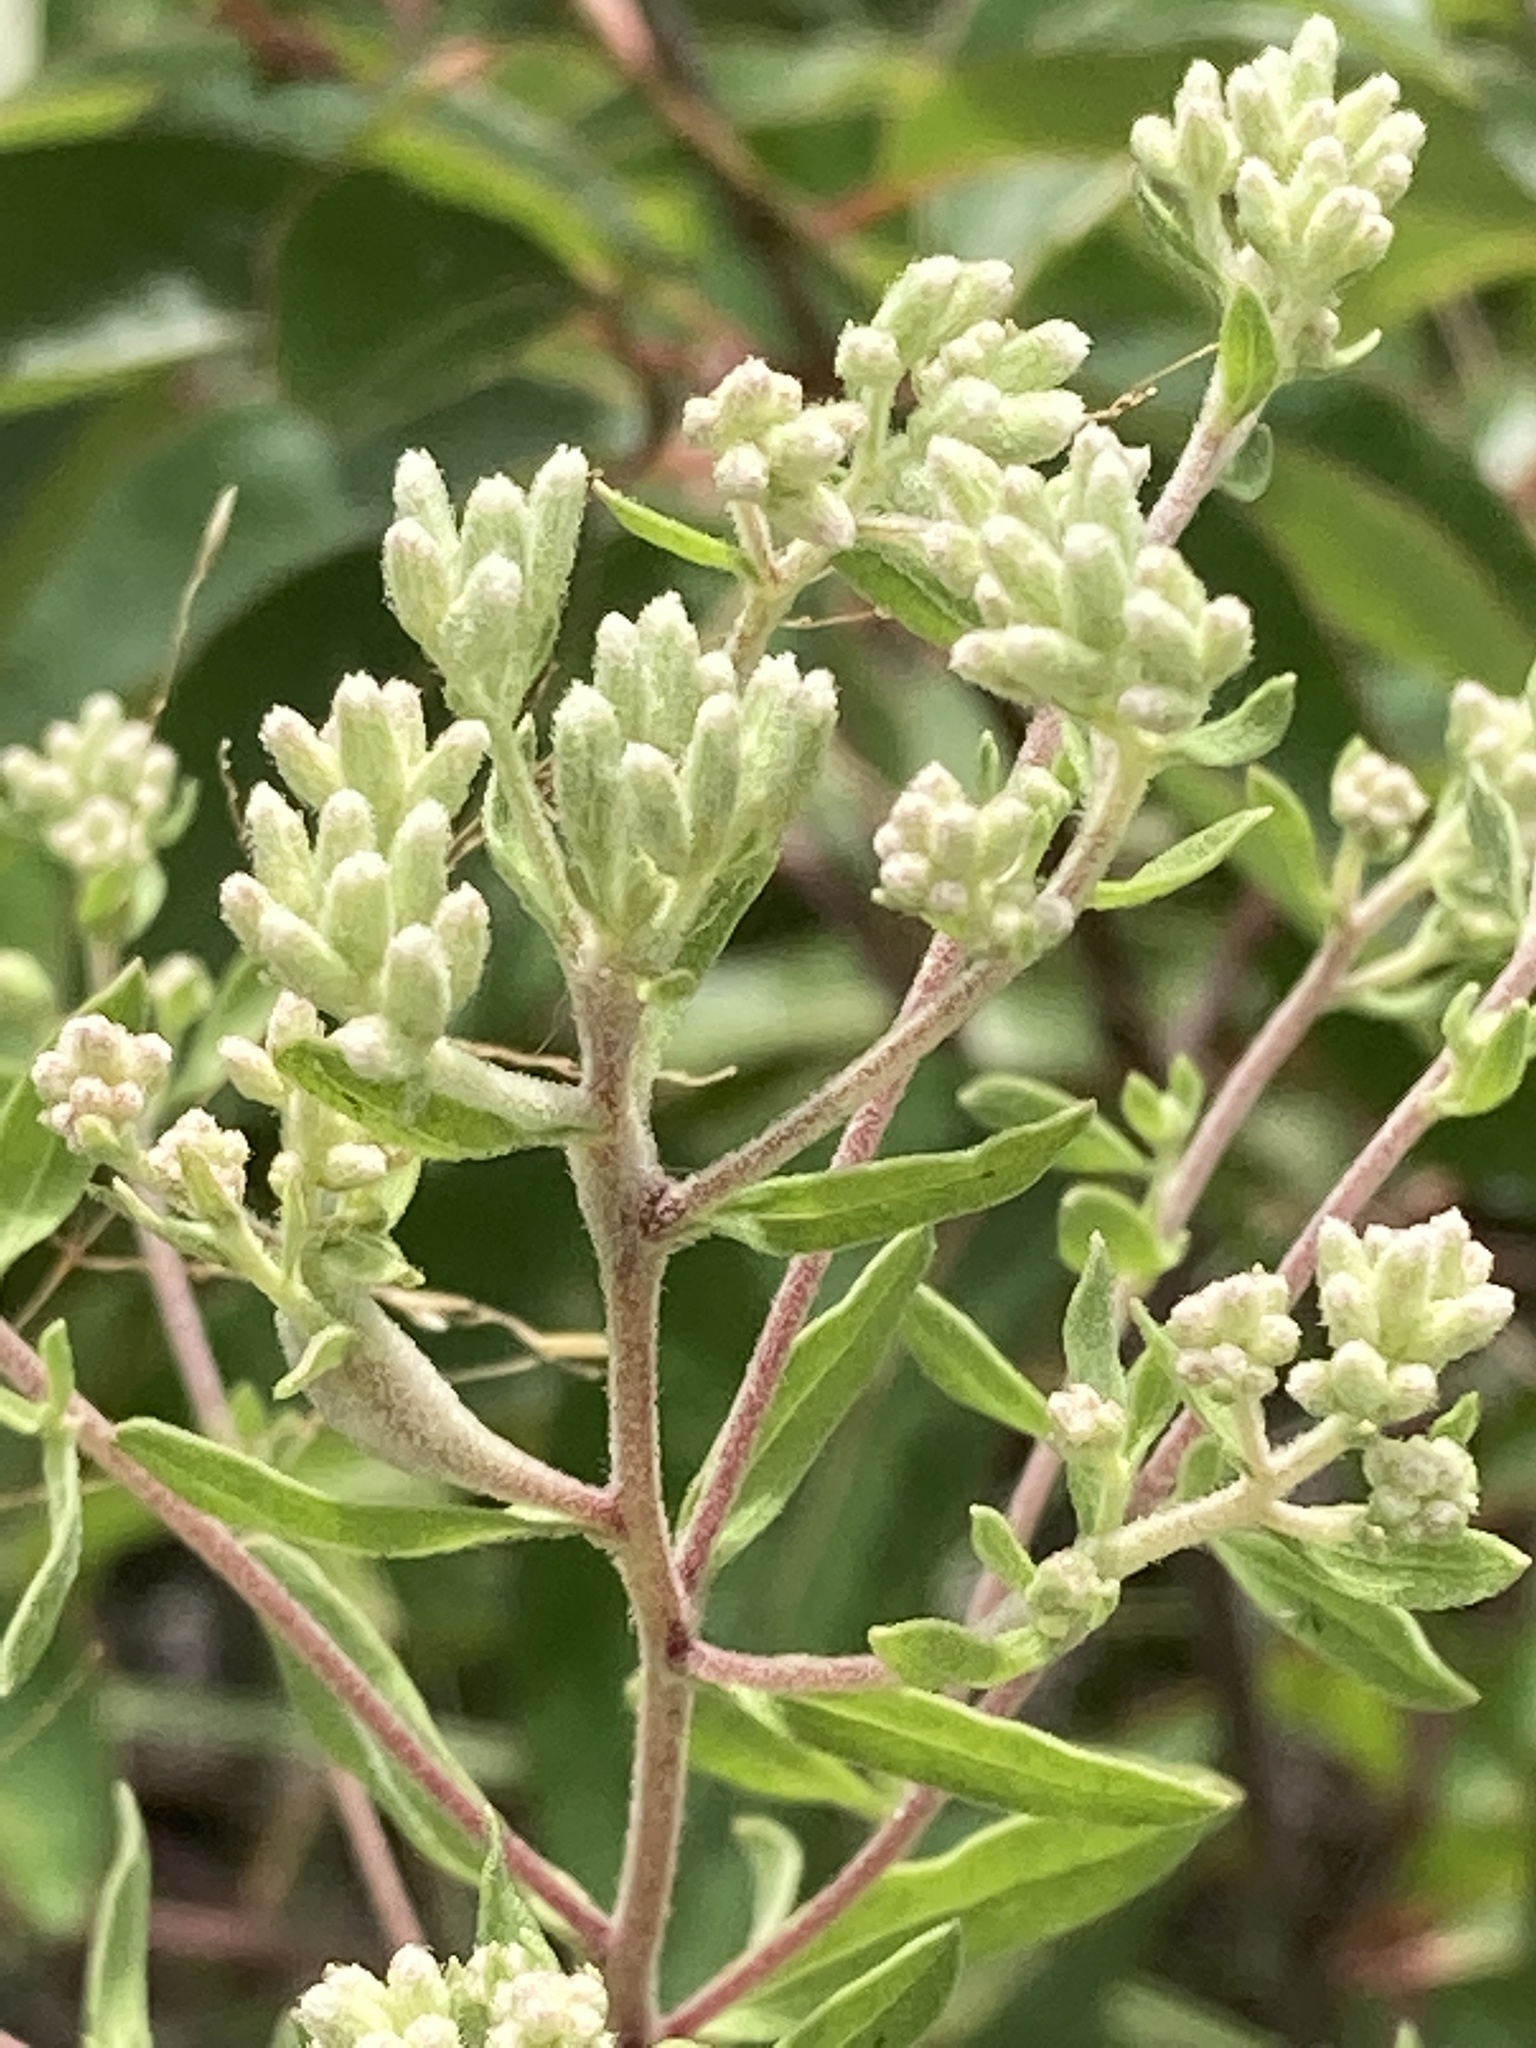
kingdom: Plantae
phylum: Tracheophyta
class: Magnoliopsida
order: Asterales
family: Asteraceae
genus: Sericocarpus
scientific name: Sericocarpus tortifolius
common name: Dixie aster
